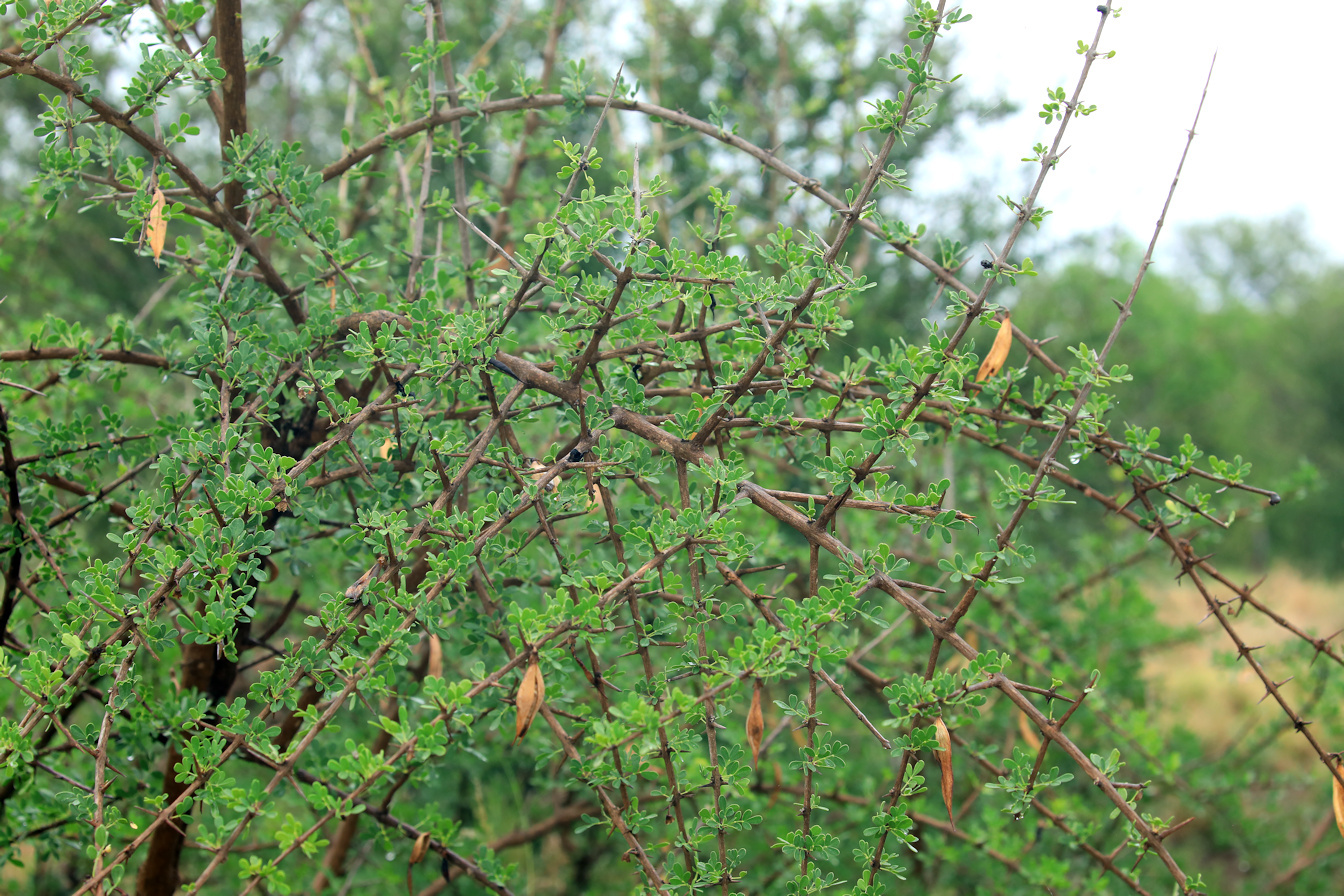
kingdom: Plantae
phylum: Tracheophyta
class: Magnoliopsida
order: Lamiales
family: Bignoniaceae
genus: Rhigozum
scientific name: Rhigozum zambesiacum
